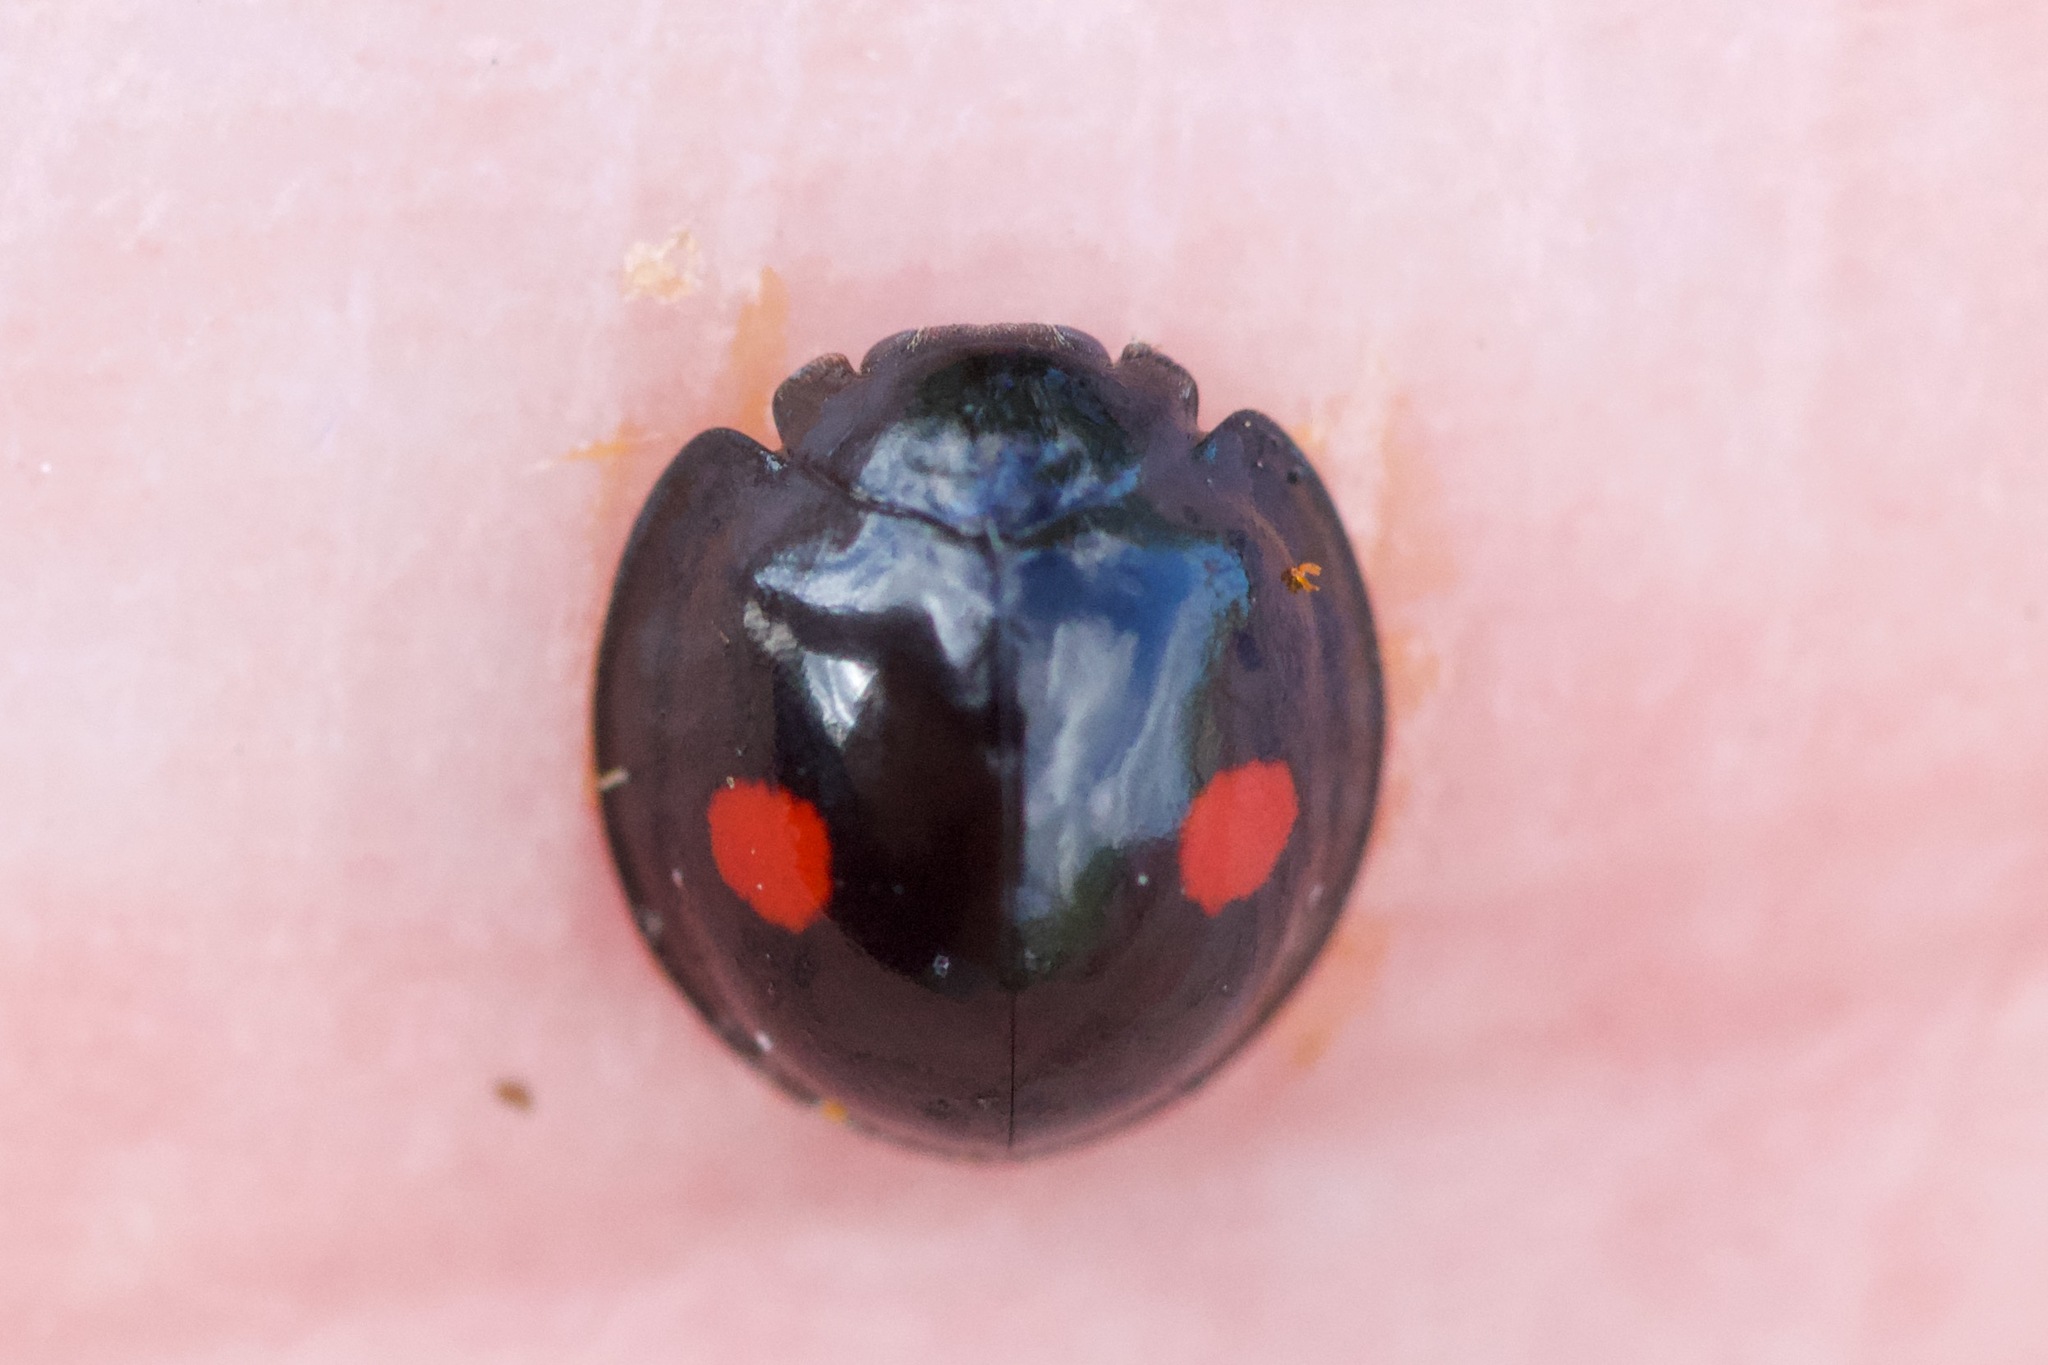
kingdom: Animalia
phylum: Arthropoda
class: Insecta
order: Coleoptera
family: Coccinellidae
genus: Chilocorus
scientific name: Chilocorus stigma
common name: Twicestabbed lady beetle
